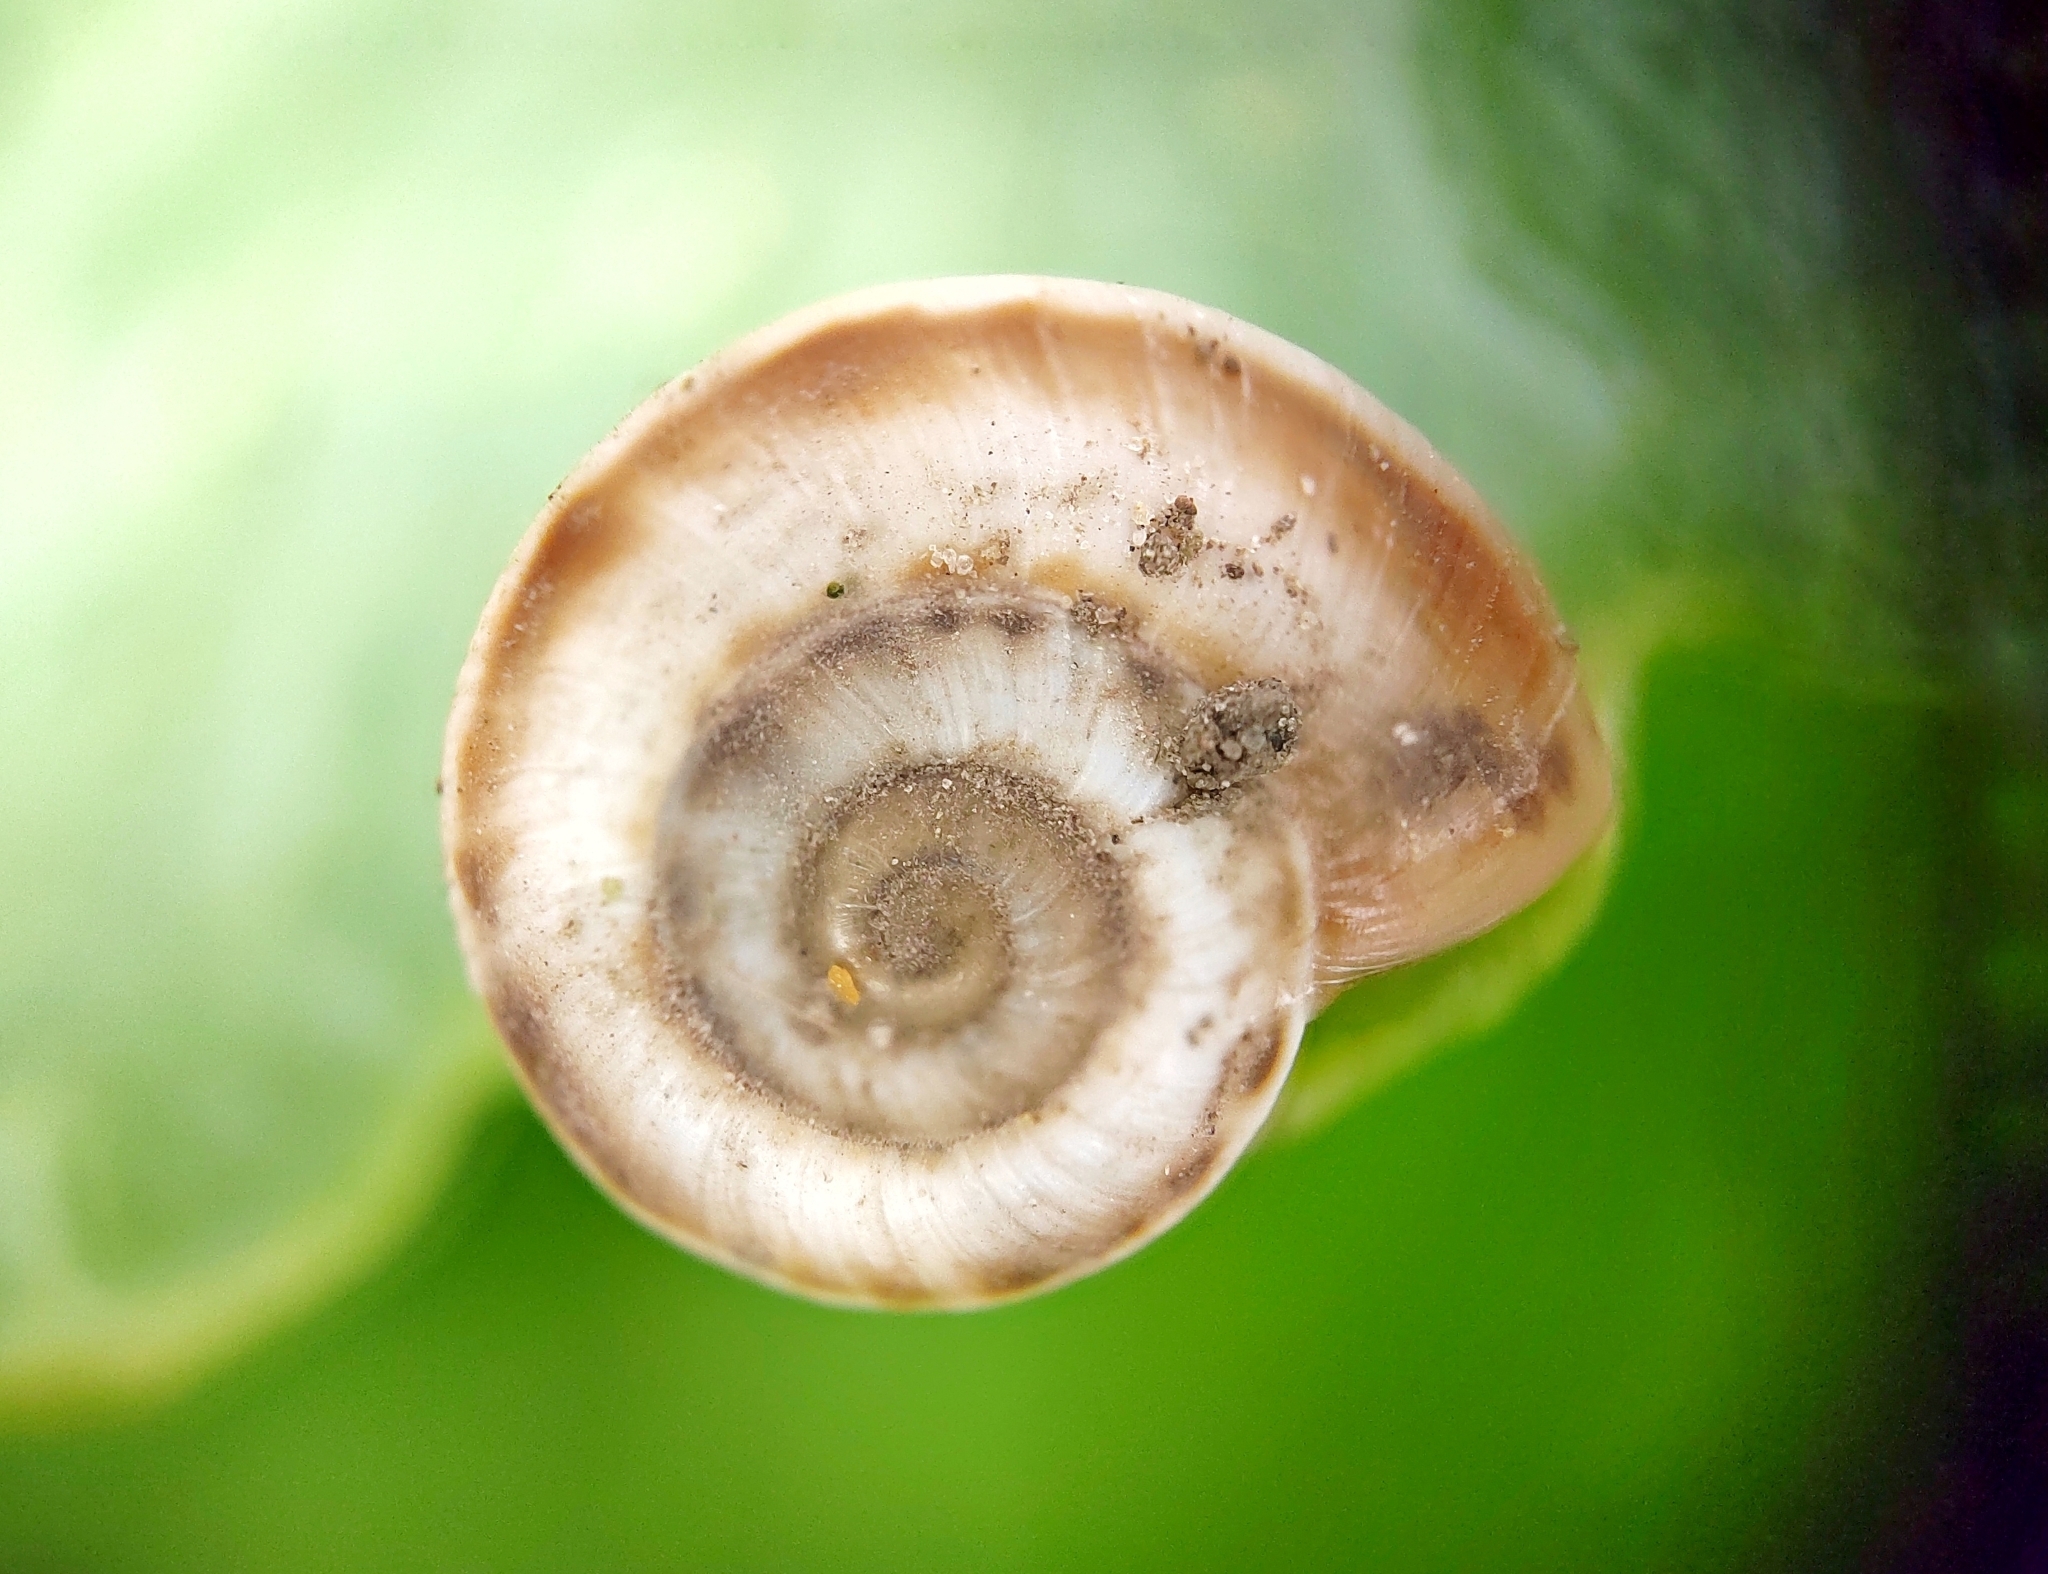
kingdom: Animalia
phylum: Mollusca
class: Gastropoda
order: Stylommatophora
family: Geomitridae
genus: Xeropicta
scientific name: Xeropicta derbentina
